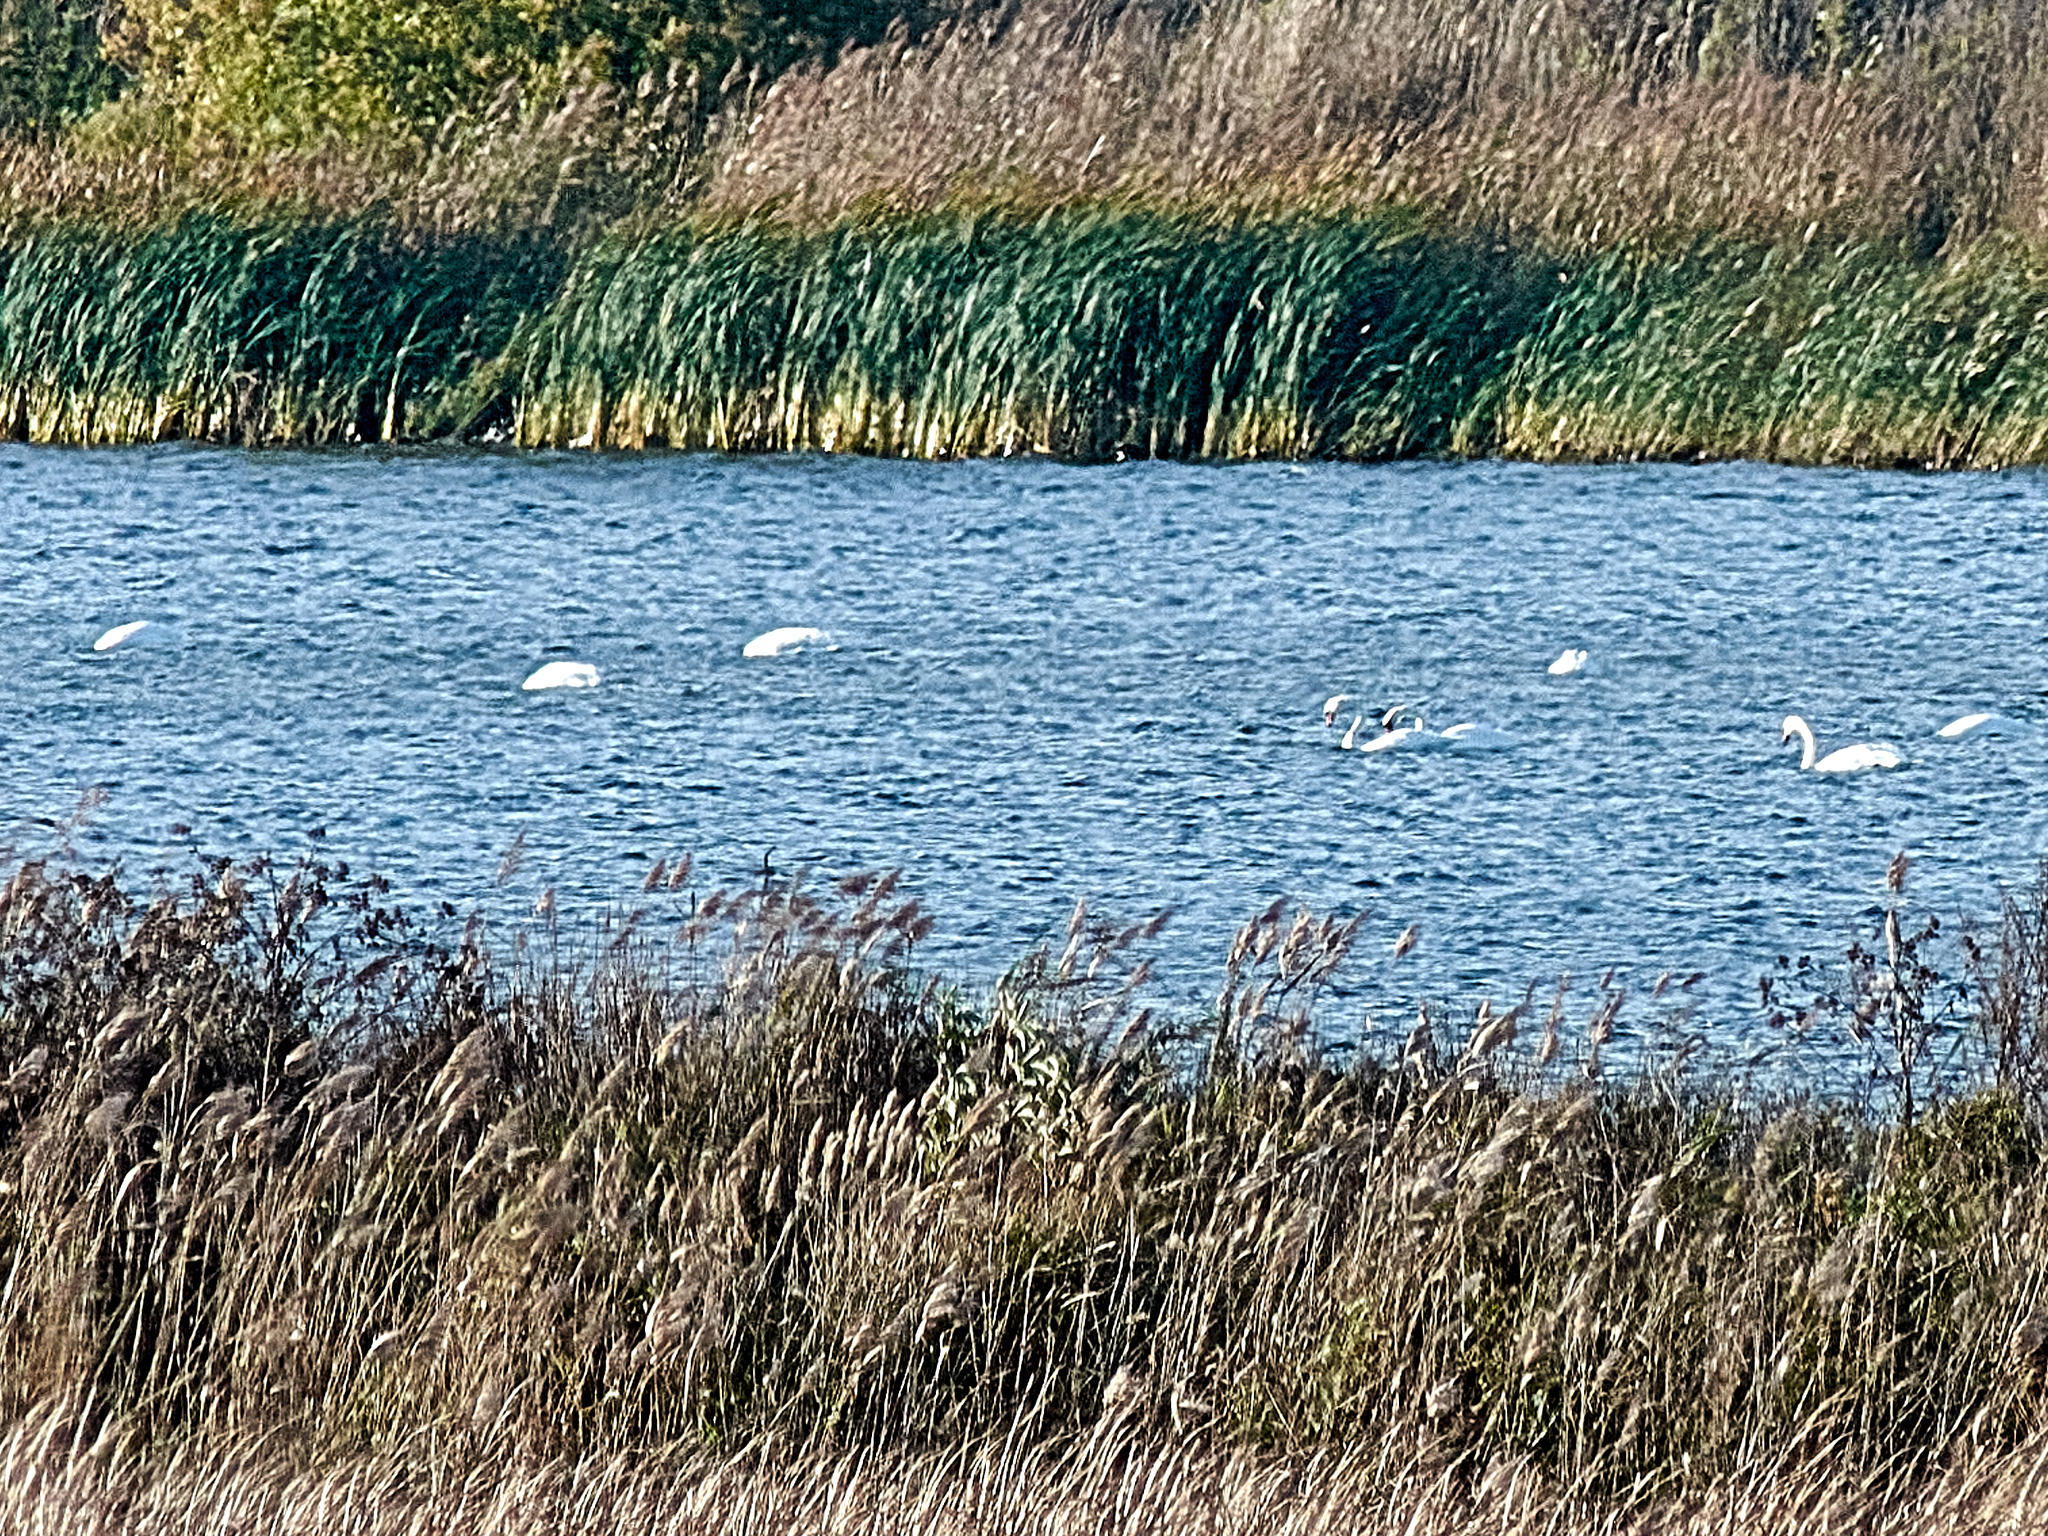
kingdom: Animalia
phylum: Chordata
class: Aves
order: Anseriformes
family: Anatidae
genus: Cygnus
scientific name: Cygnus olor
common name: Mute swan
